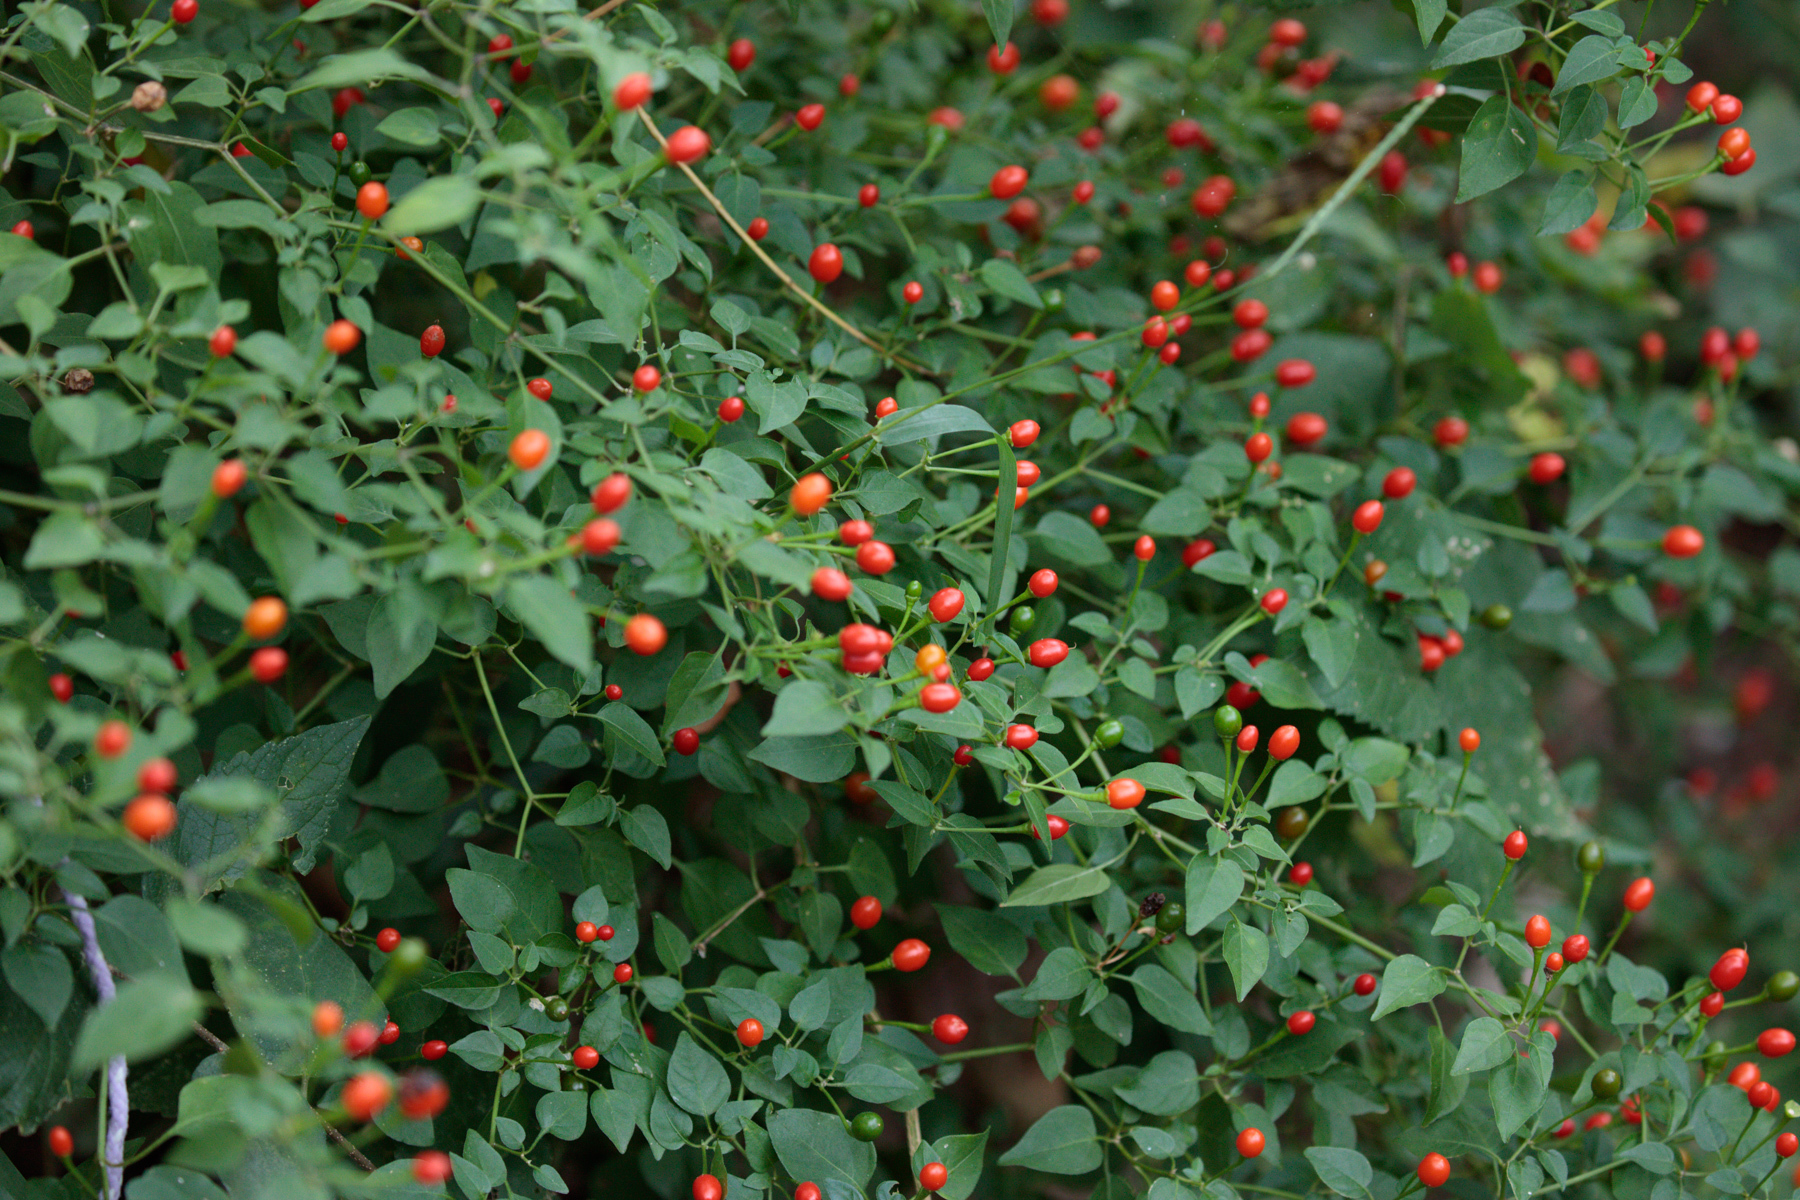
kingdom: Plantae
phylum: Tracheophyta
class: Magnoliopsida
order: Solanales
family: Solanaceae
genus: Capsicum
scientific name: Capsicum annuum
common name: Sweet pepper
